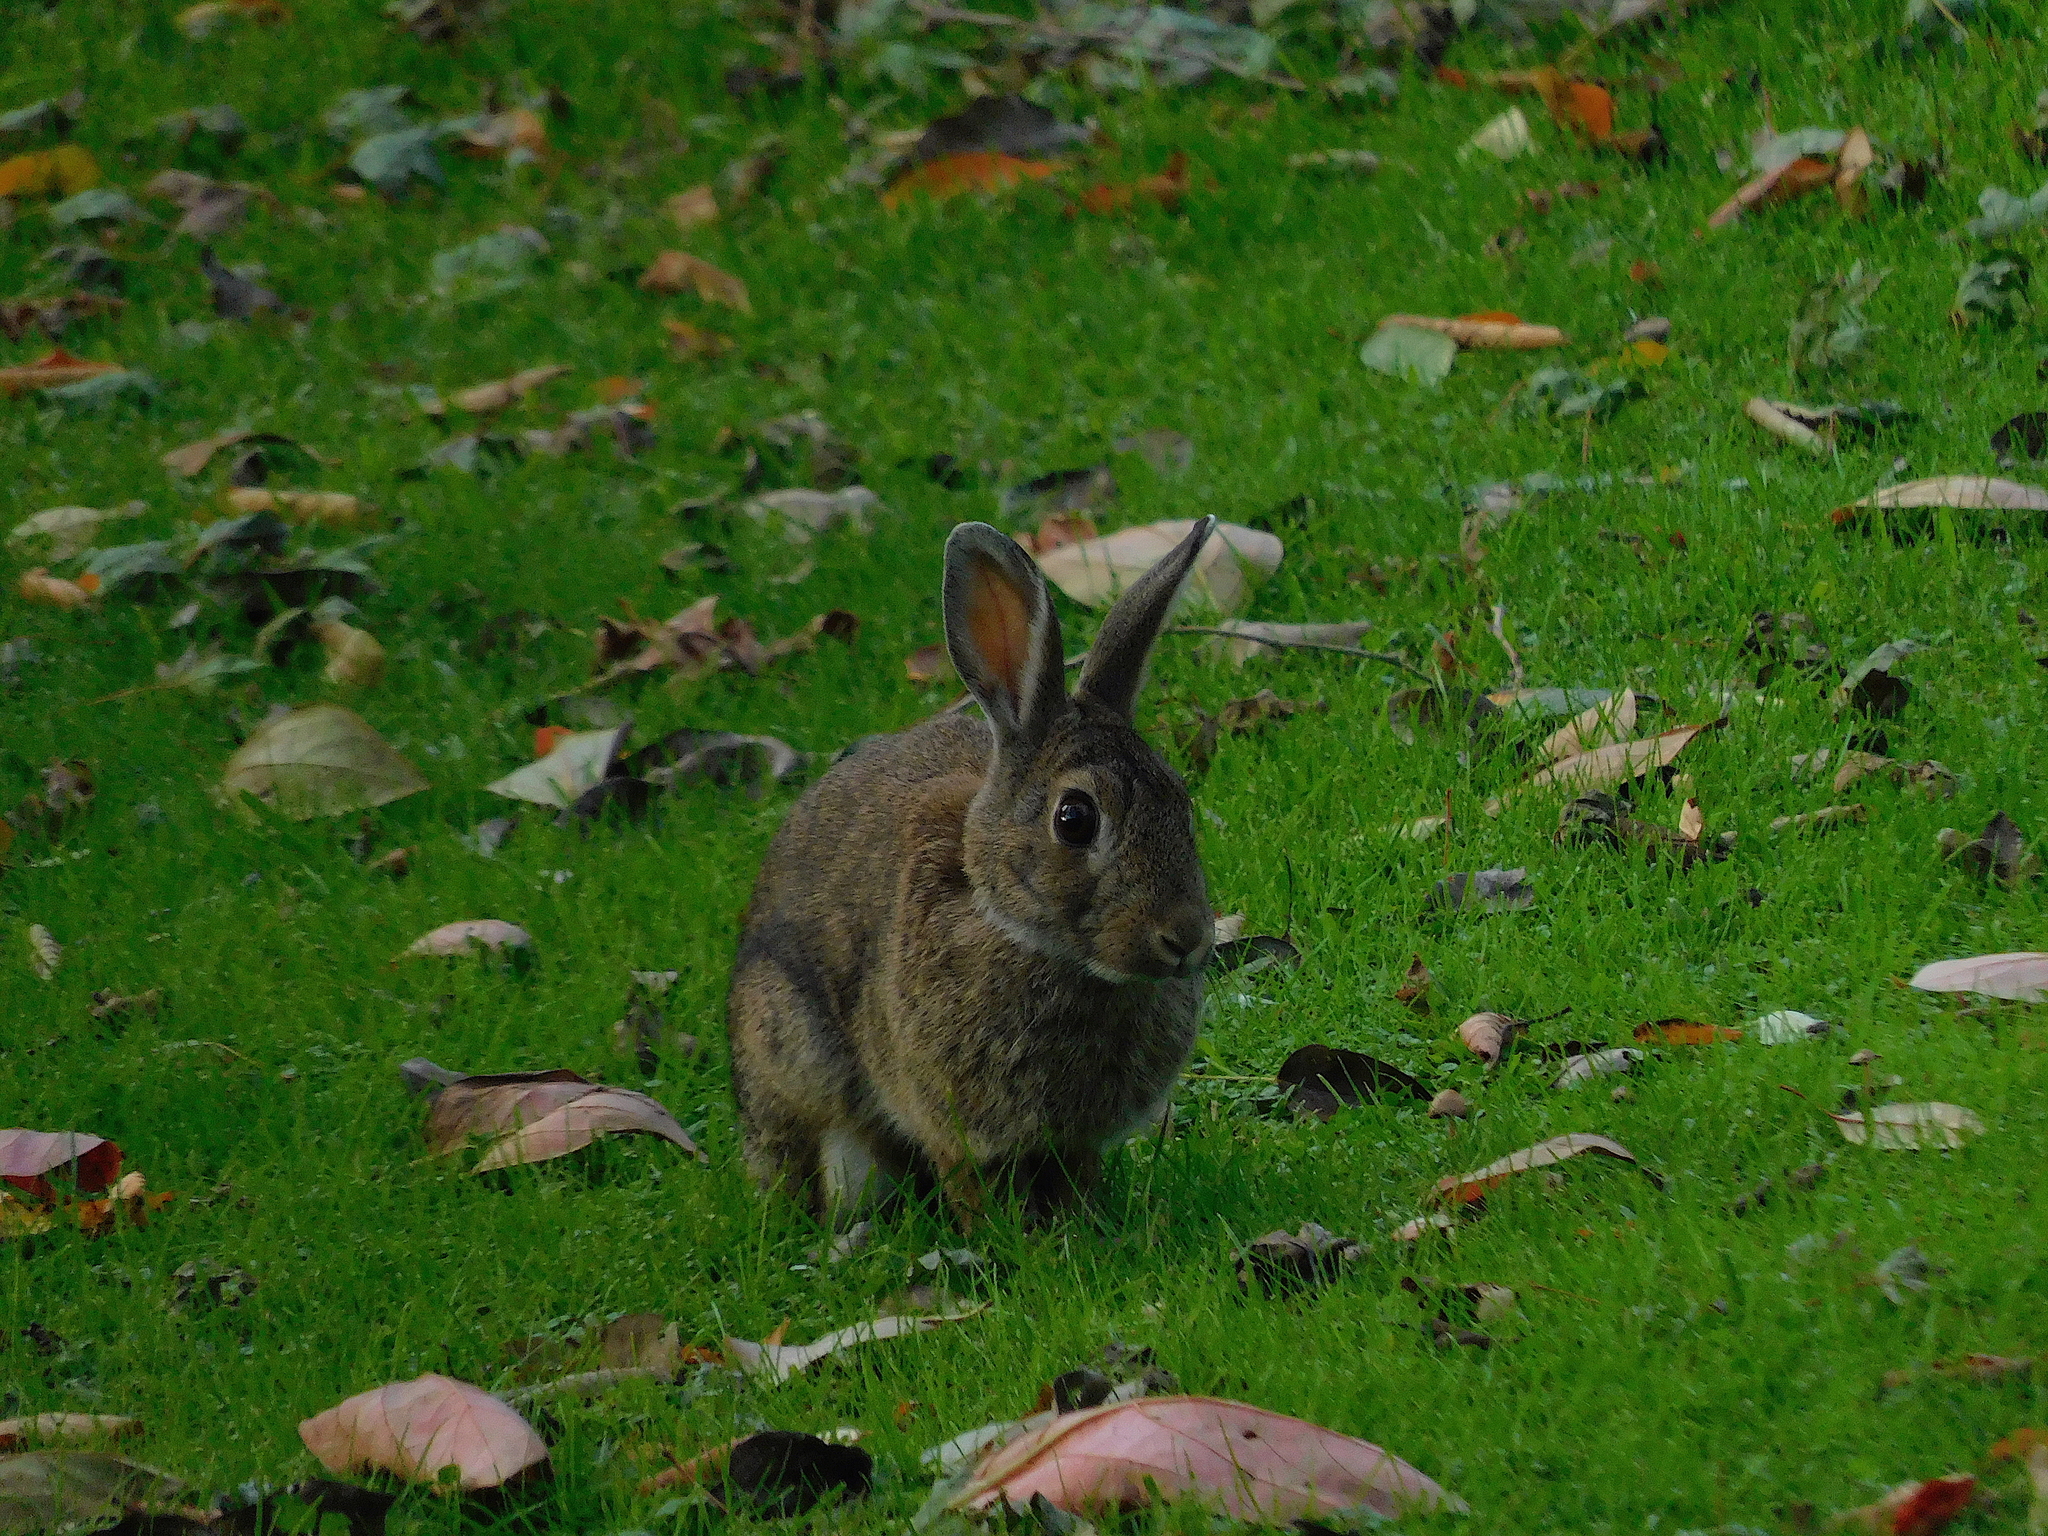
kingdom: Animalia
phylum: Chordata
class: Mammalia
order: Lagomorpha
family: Leporidae
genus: Oryctolagus
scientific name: Oryctolagus cuniculus
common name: European rabbit
